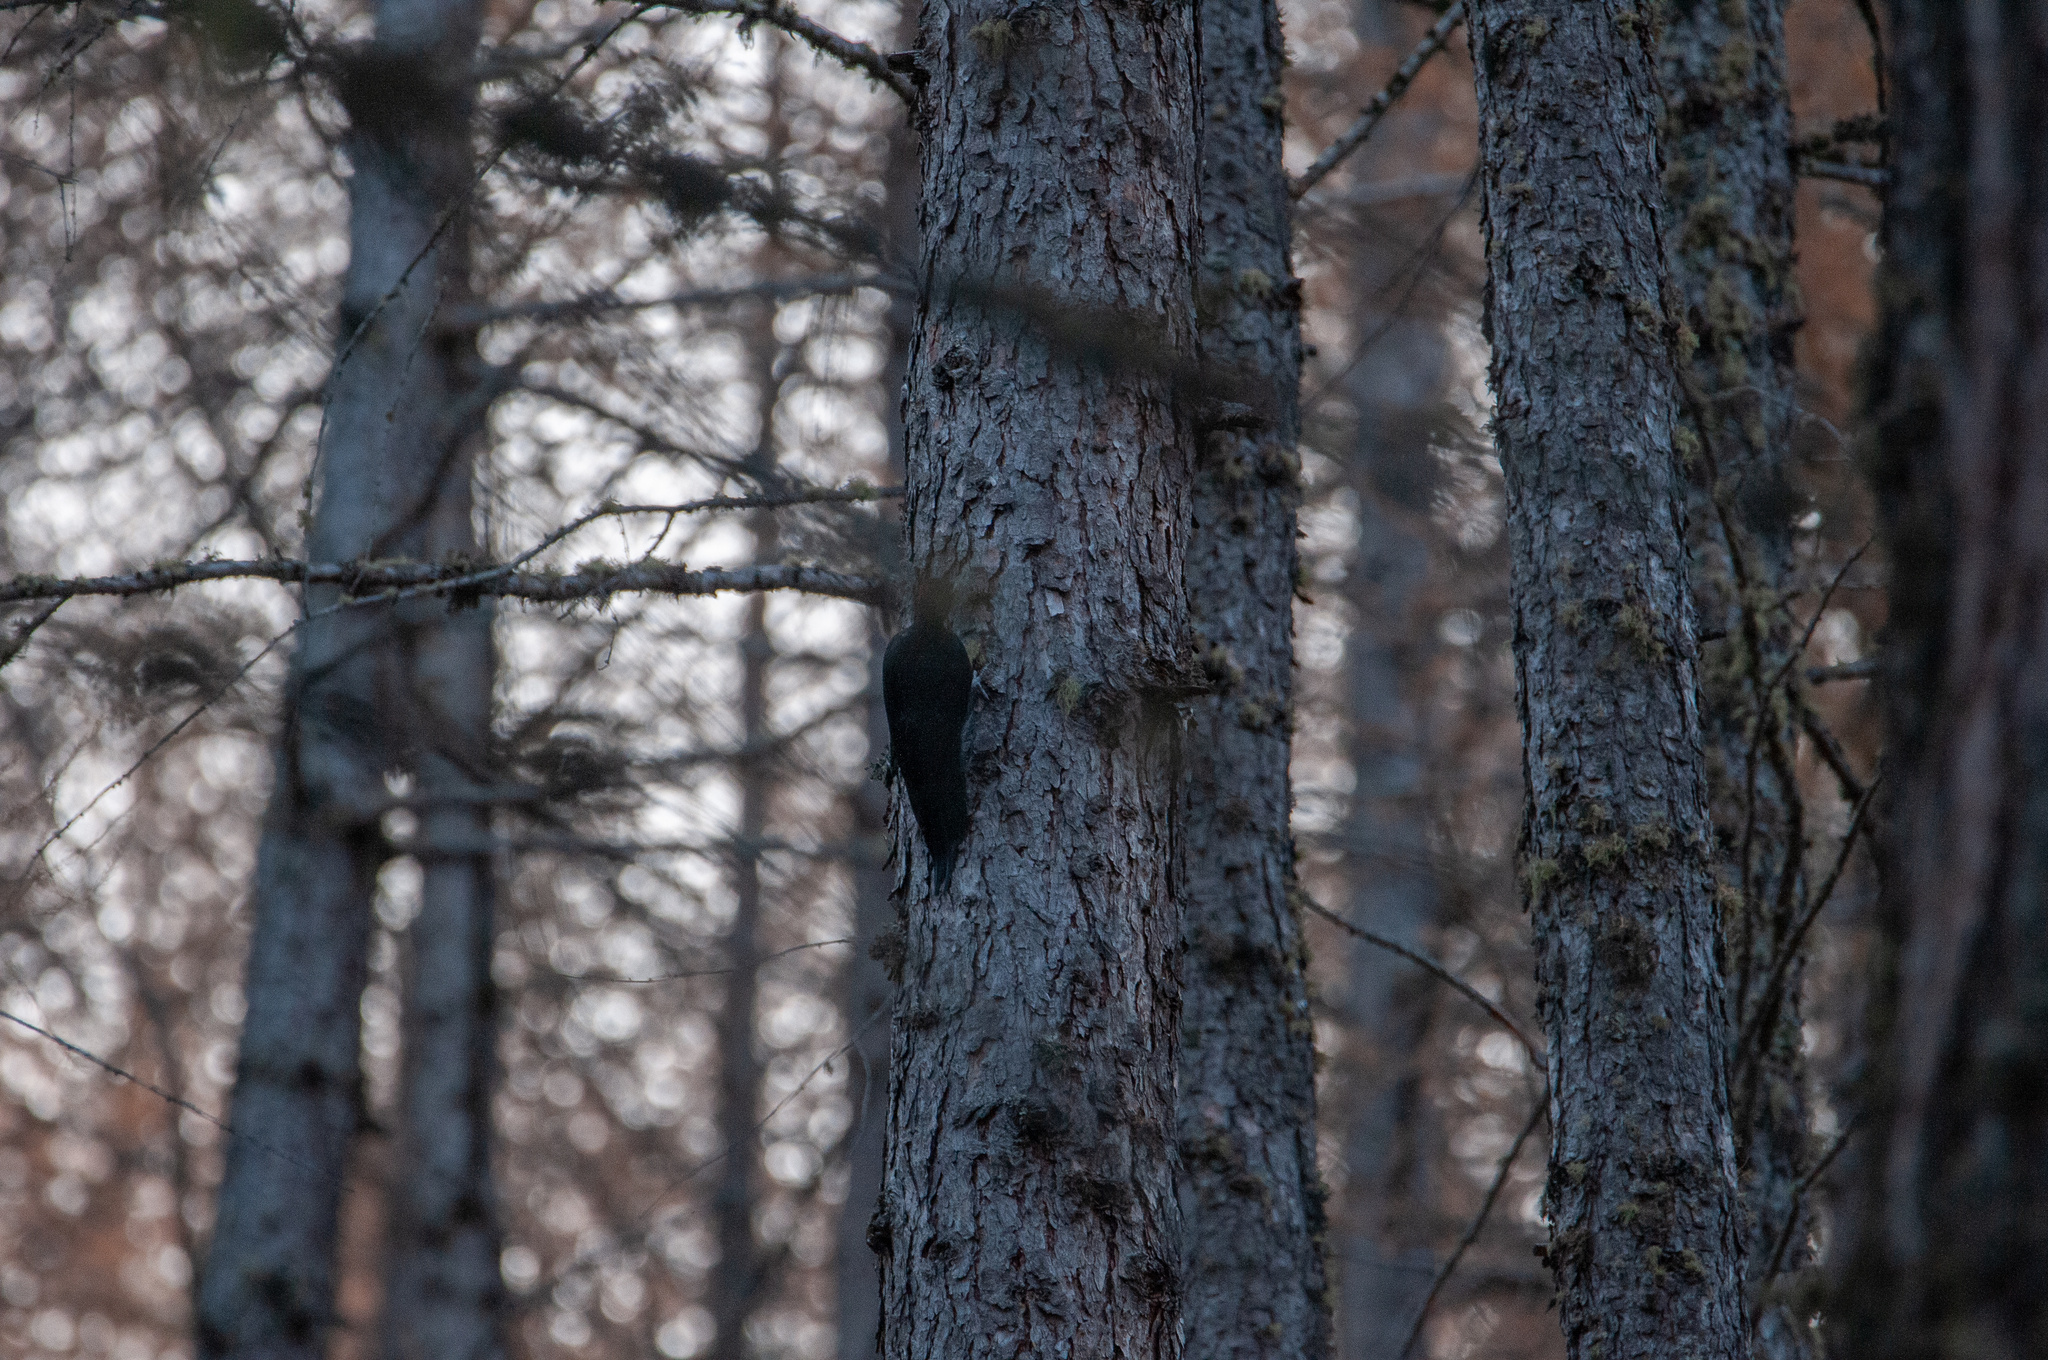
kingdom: Animalia
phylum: Chordata
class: Aves
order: Piciformes
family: Picidae
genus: Dryocopus
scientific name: Dryocopus martius
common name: Black woodpecker
